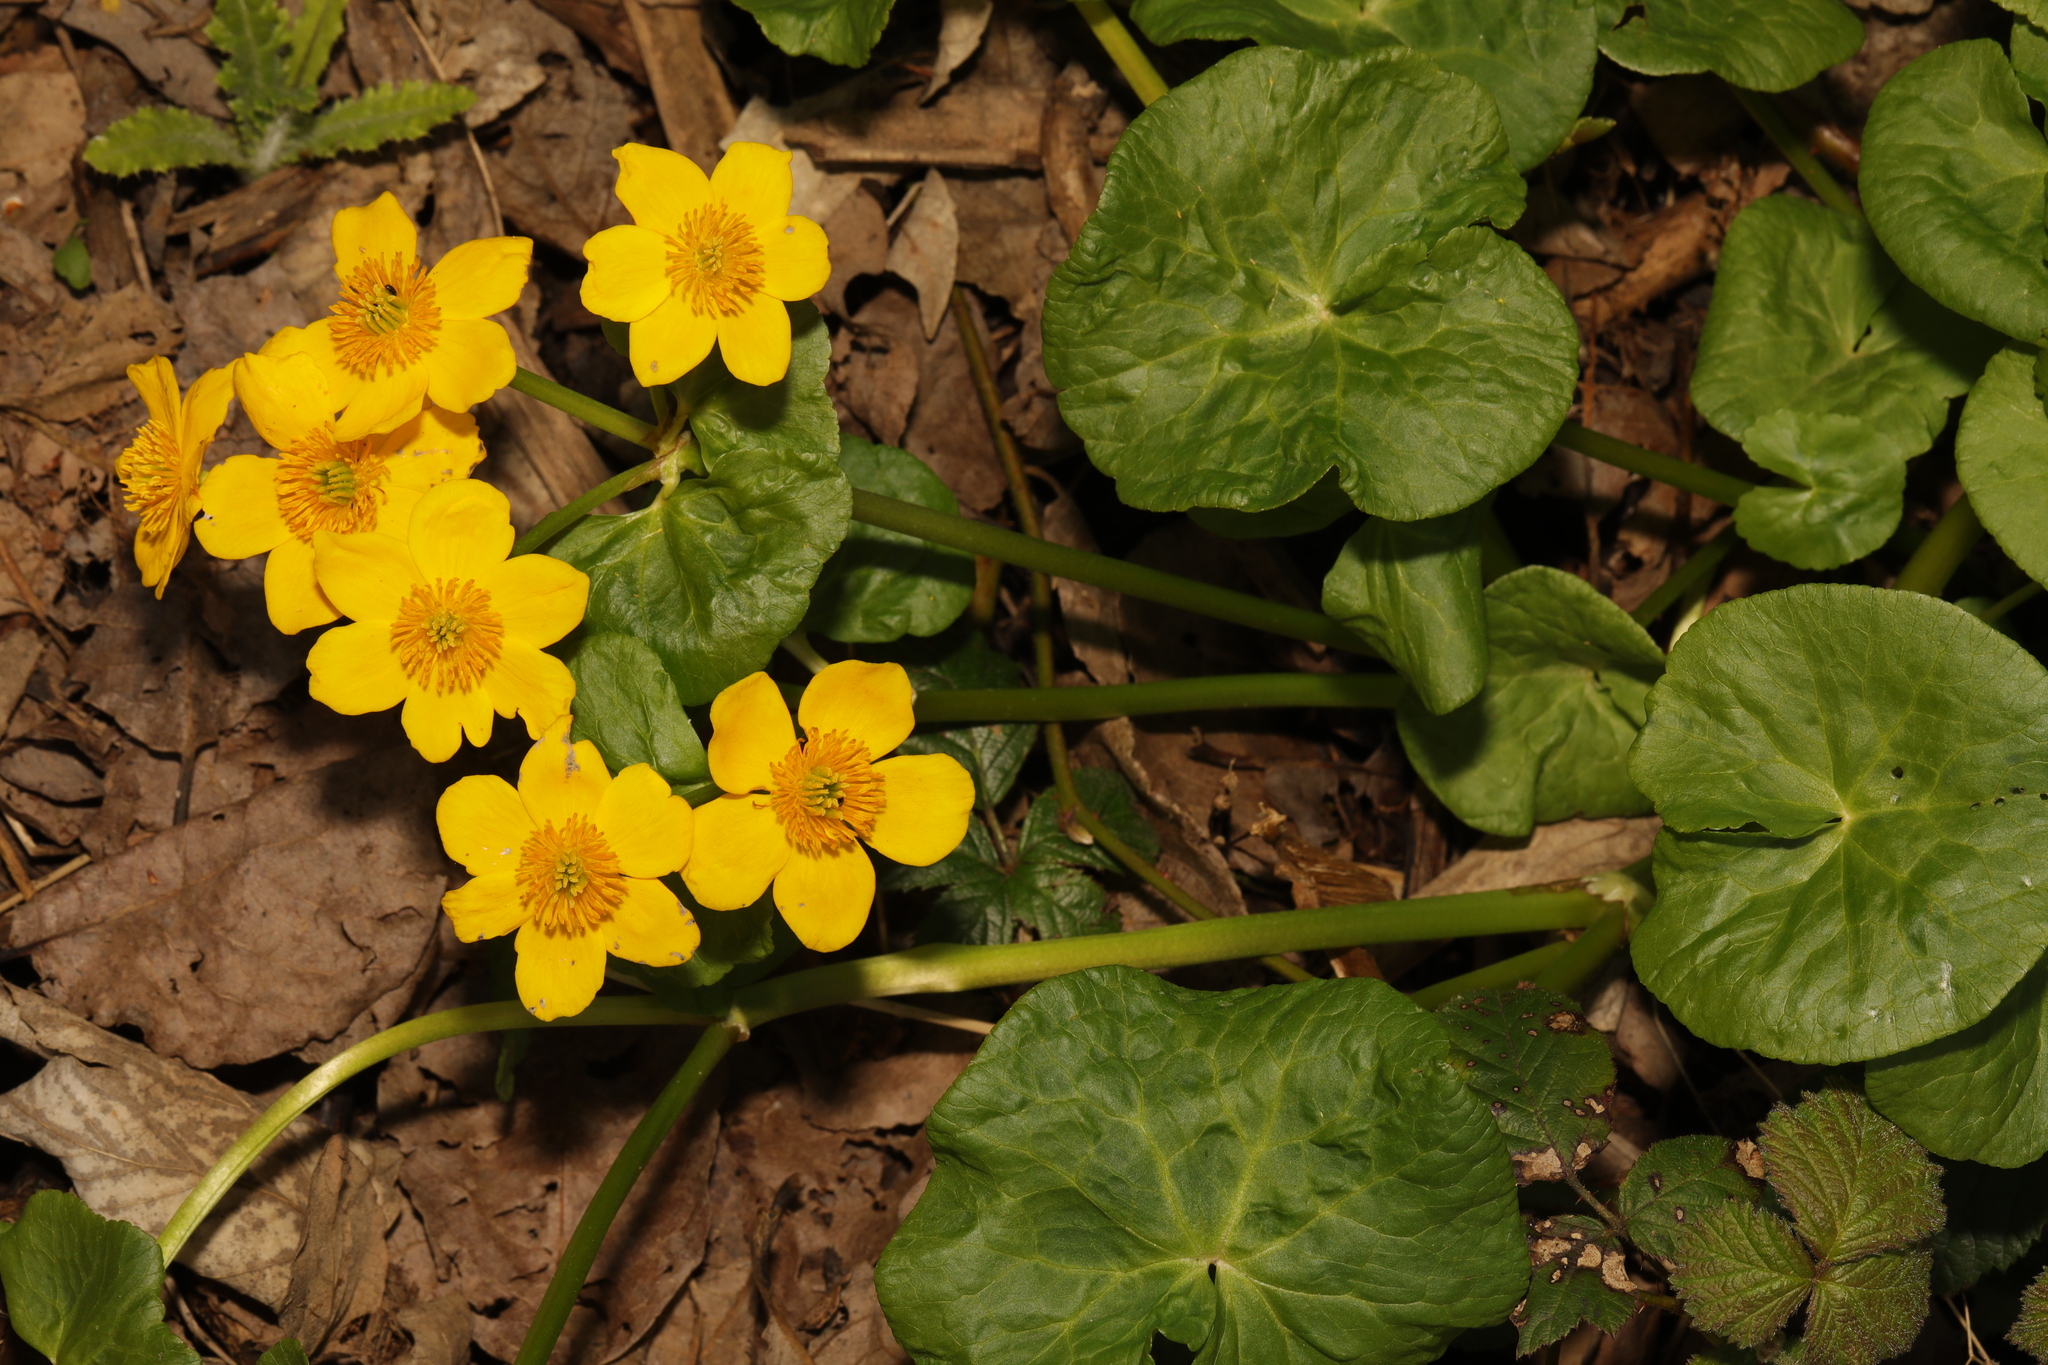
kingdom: Plantae
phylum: Tracheophyta
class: Magnoliopsida
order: Ranunculales
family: Ranunculaceae
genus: Caltha
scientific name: Caltha palustris
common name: Marsh marigold
